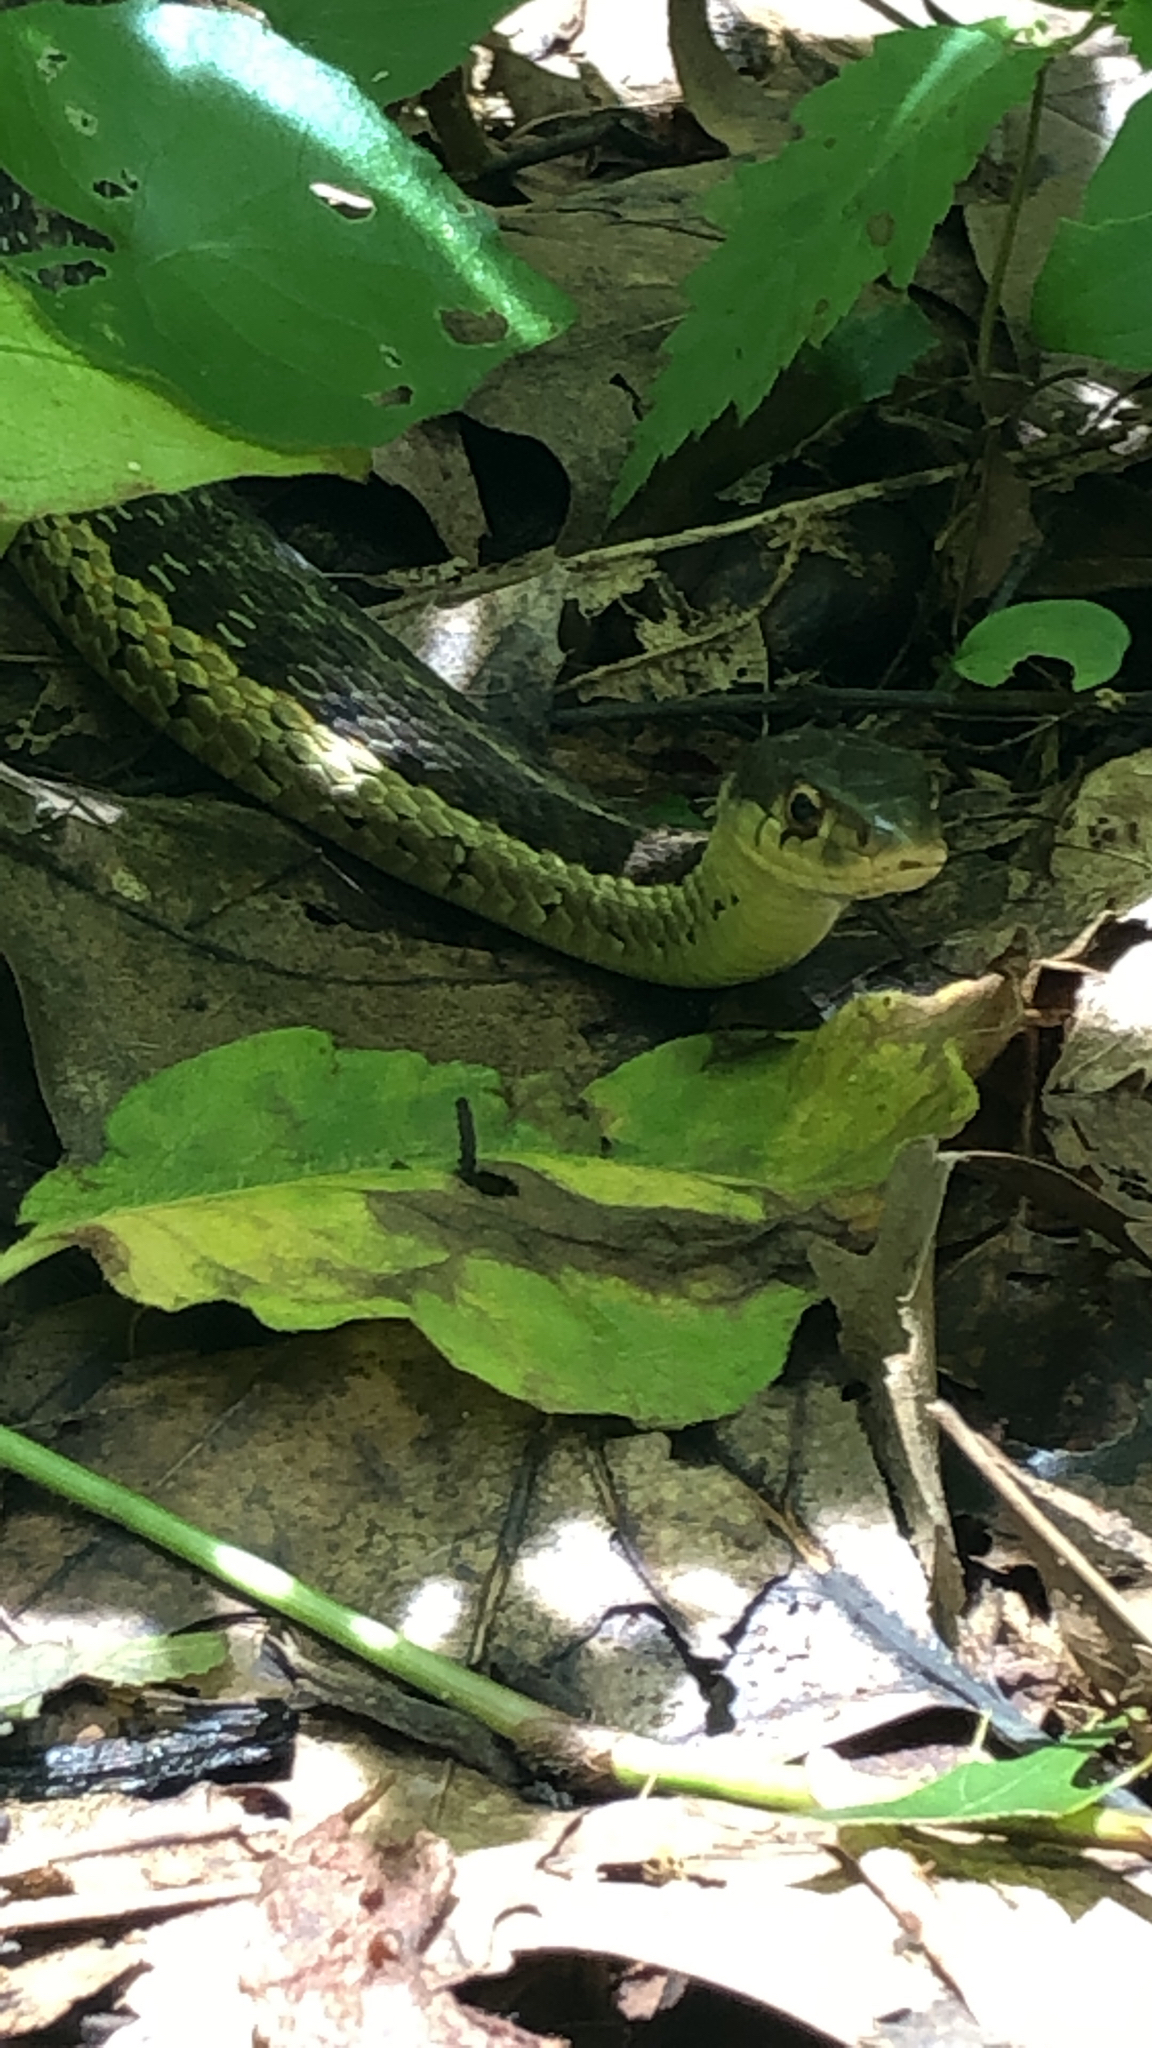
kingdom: Animalia
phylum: Chordata
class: Squamata
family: Colubridae
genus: Thamnophis
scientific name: Thamnophis sirtalis
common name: Common garter snake
